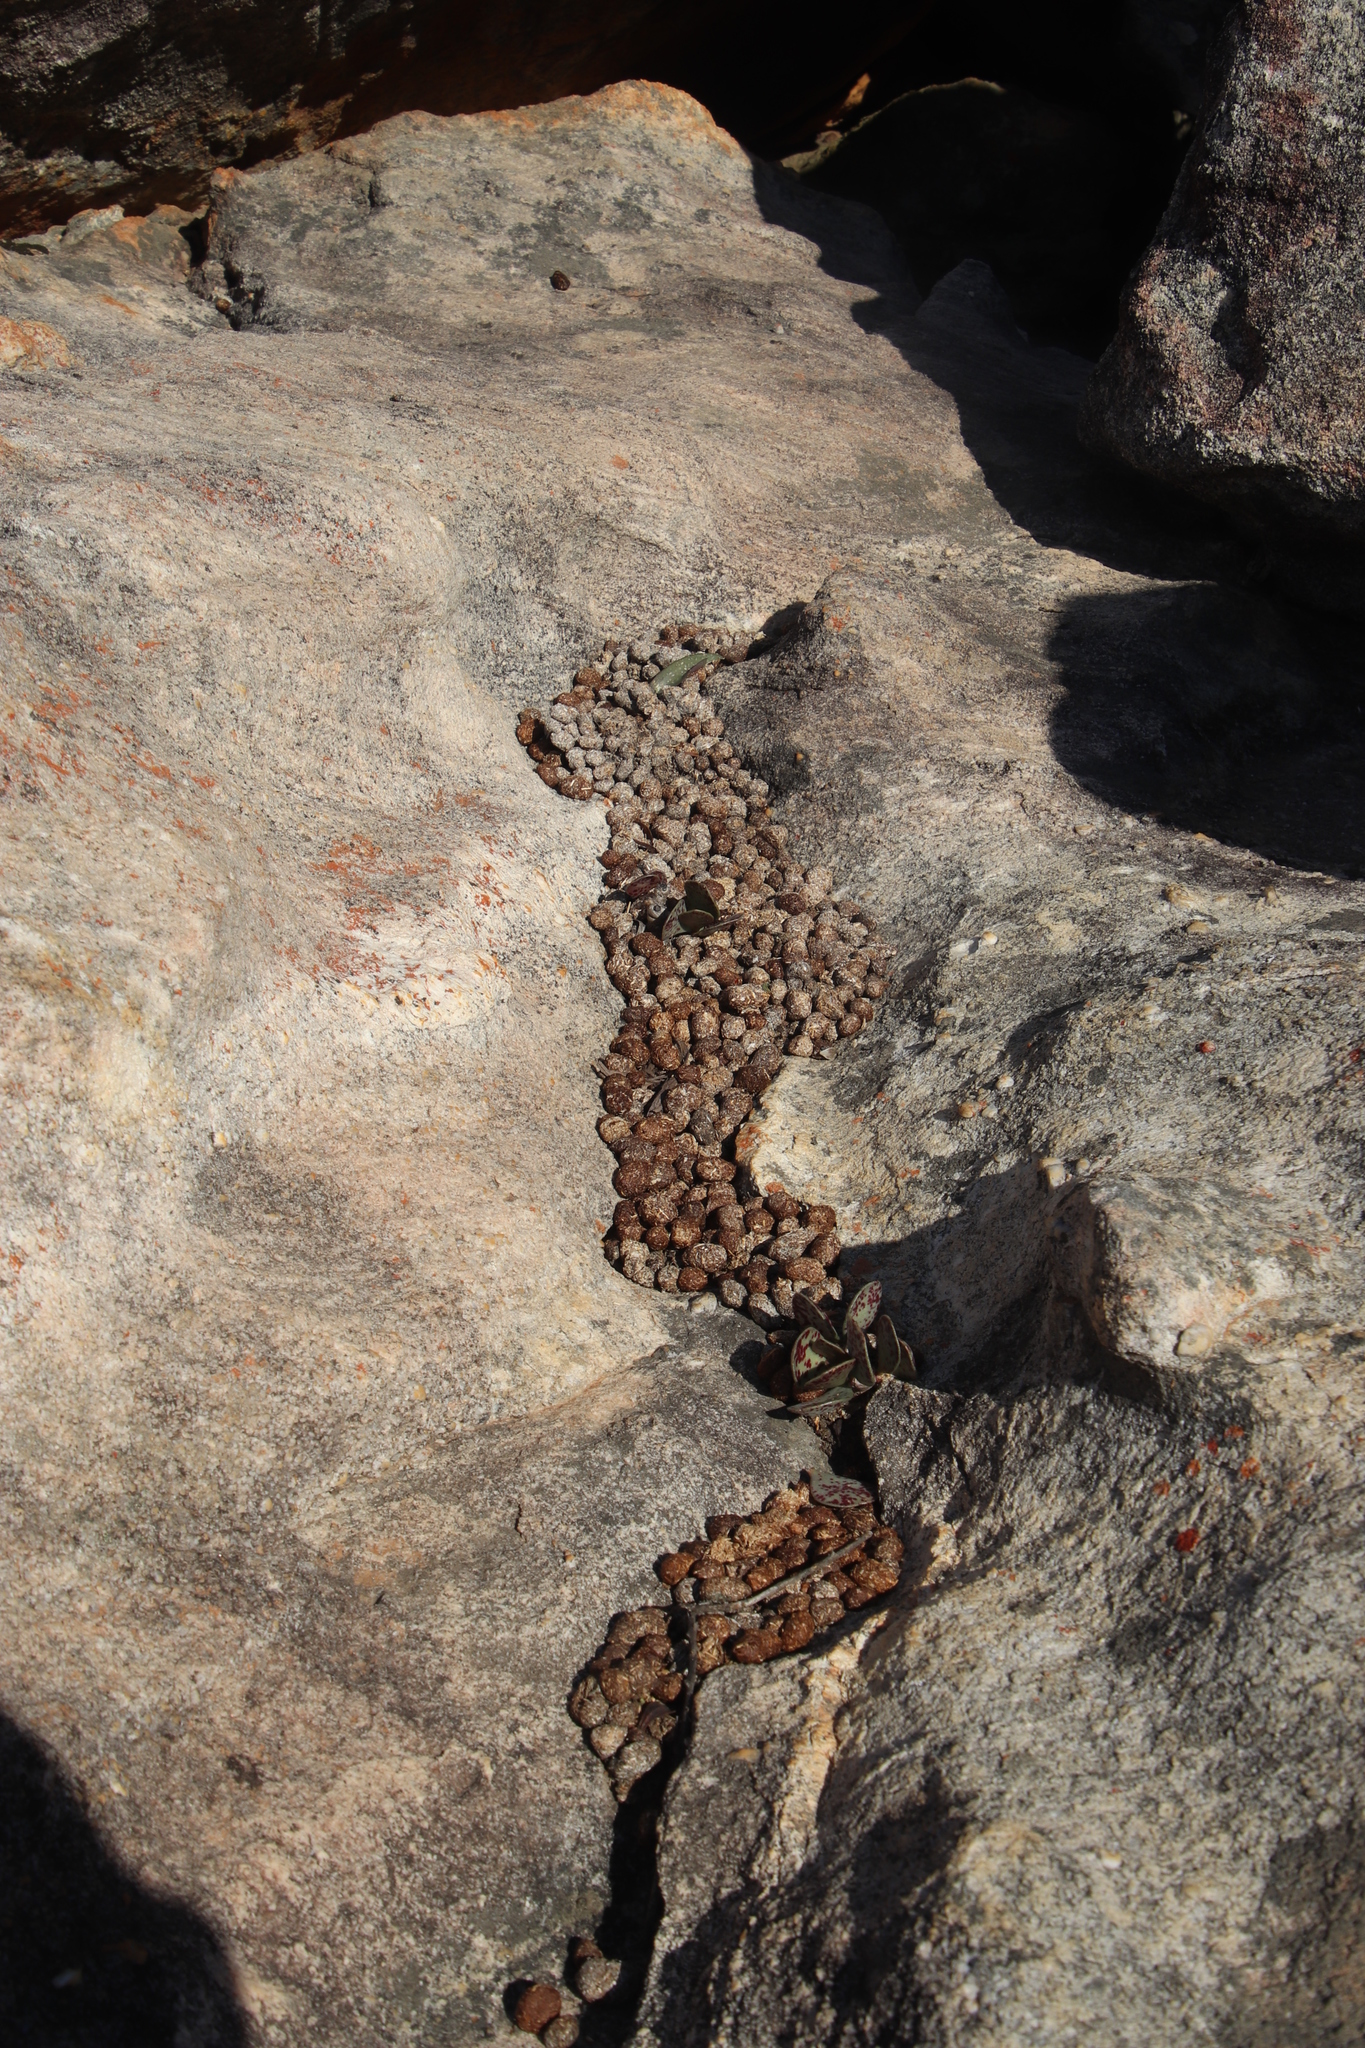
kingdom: Animalia
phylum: Chordata
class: Mammalia
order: Hyracoidea
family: Procaviidae
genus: Procavia
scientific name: Procavia capensis
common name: Rock hyrax
